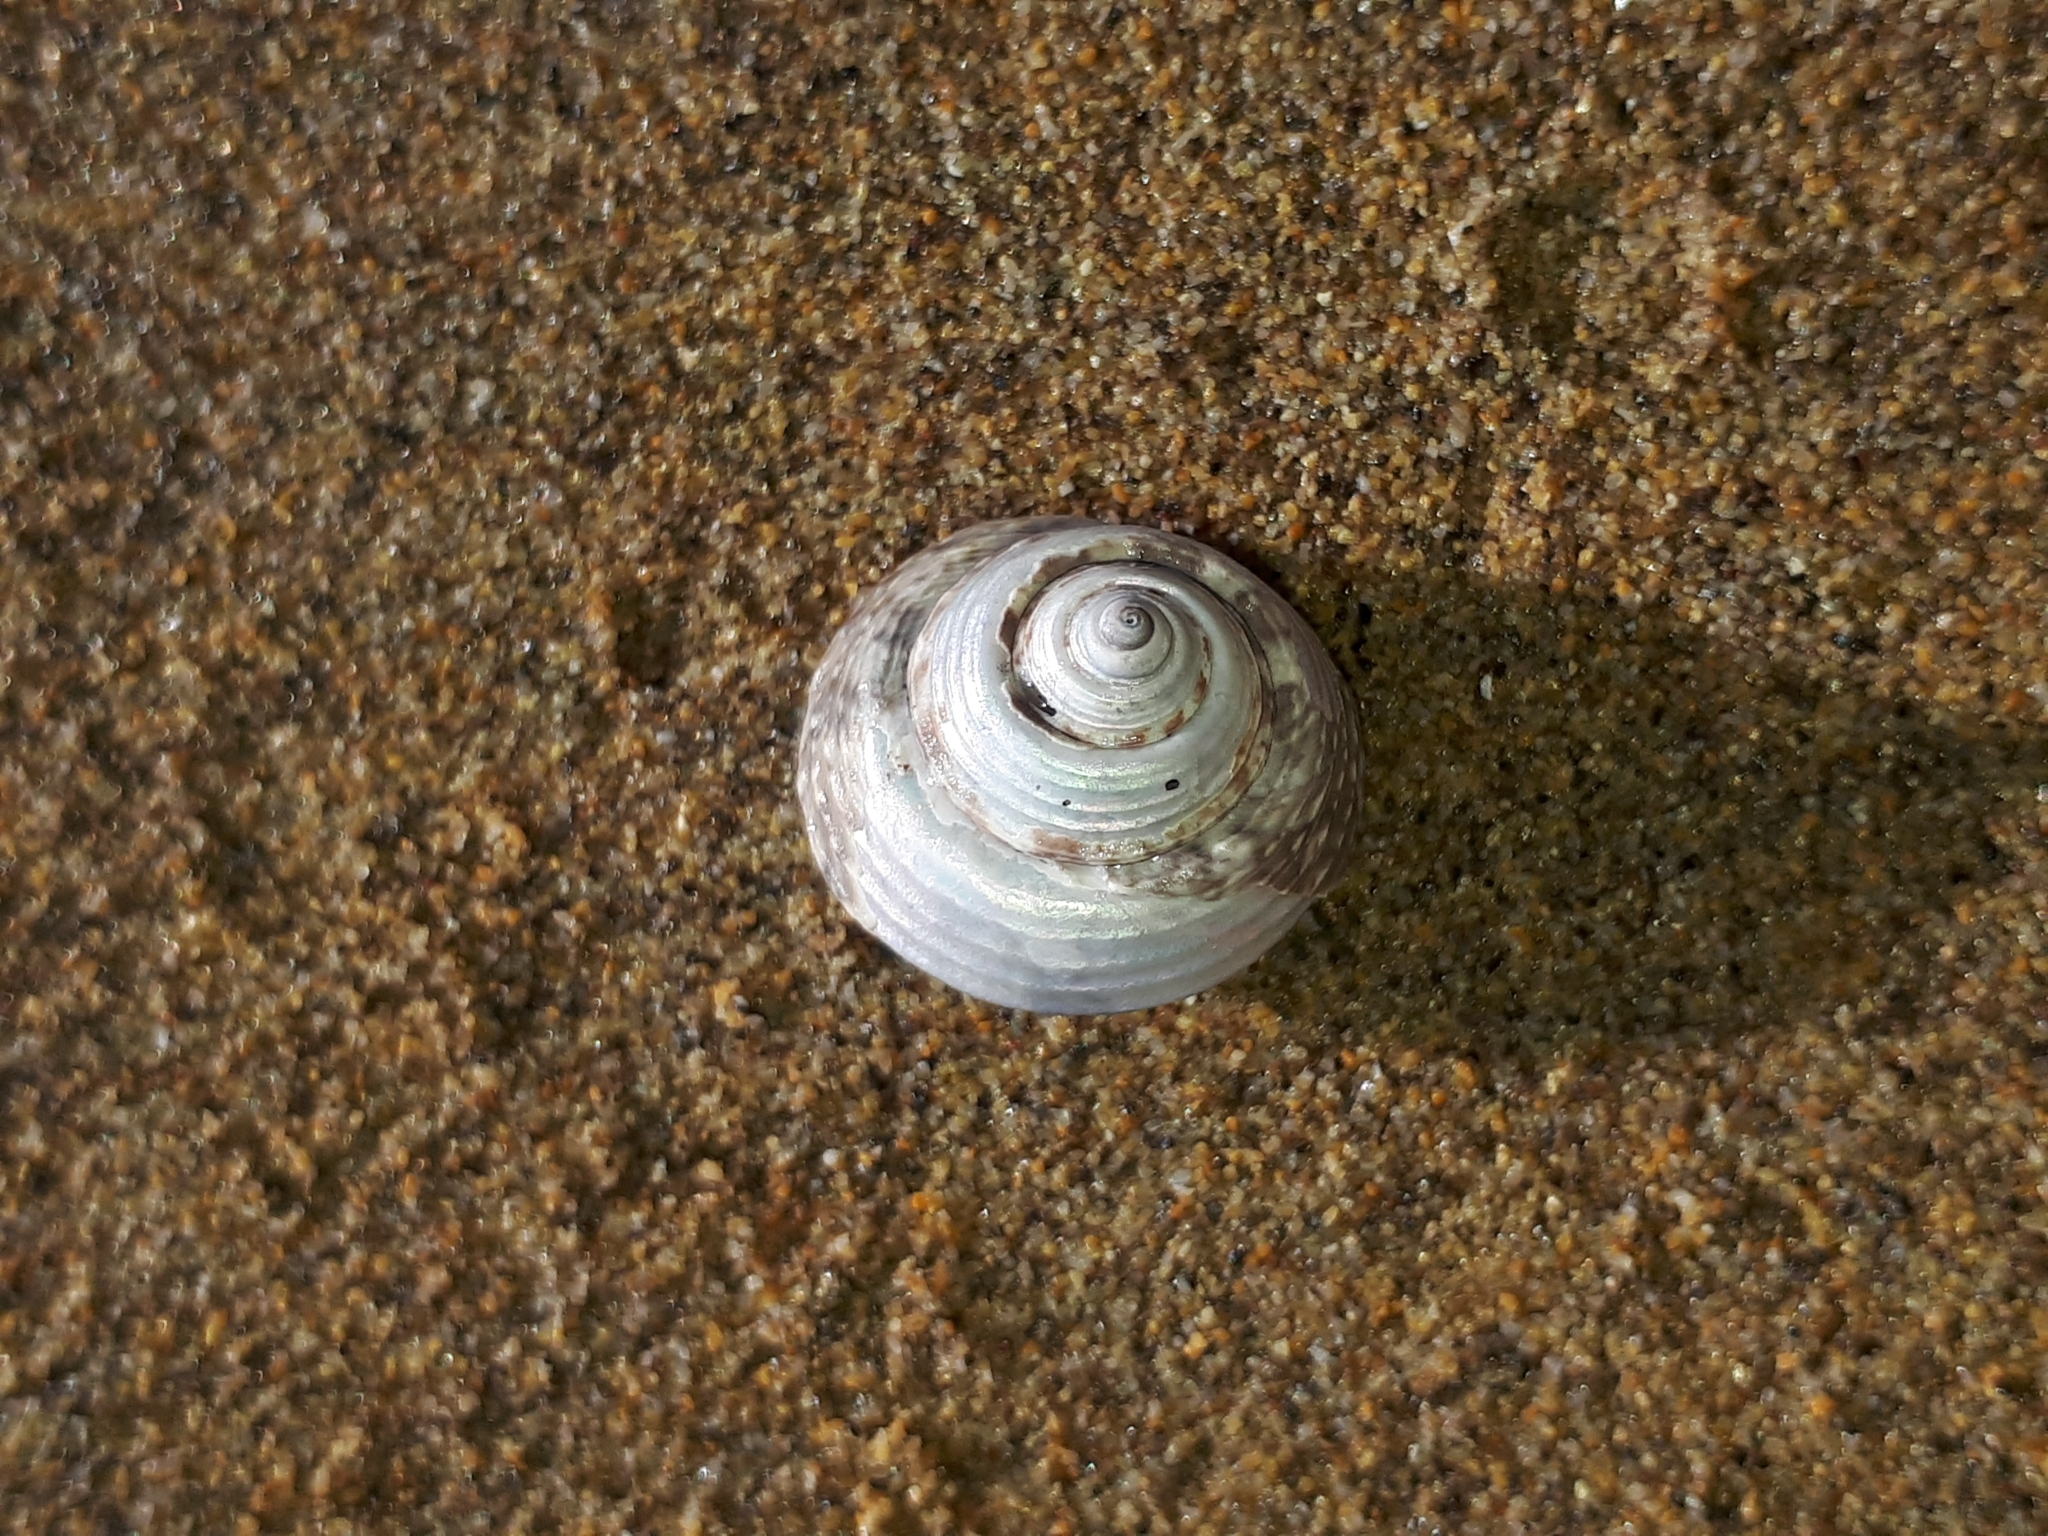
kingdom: Animalia
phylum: Mollusca
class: Gastropoda
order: Trochida
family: Trochidae
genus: Steromphala
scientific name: Steromphala albida
